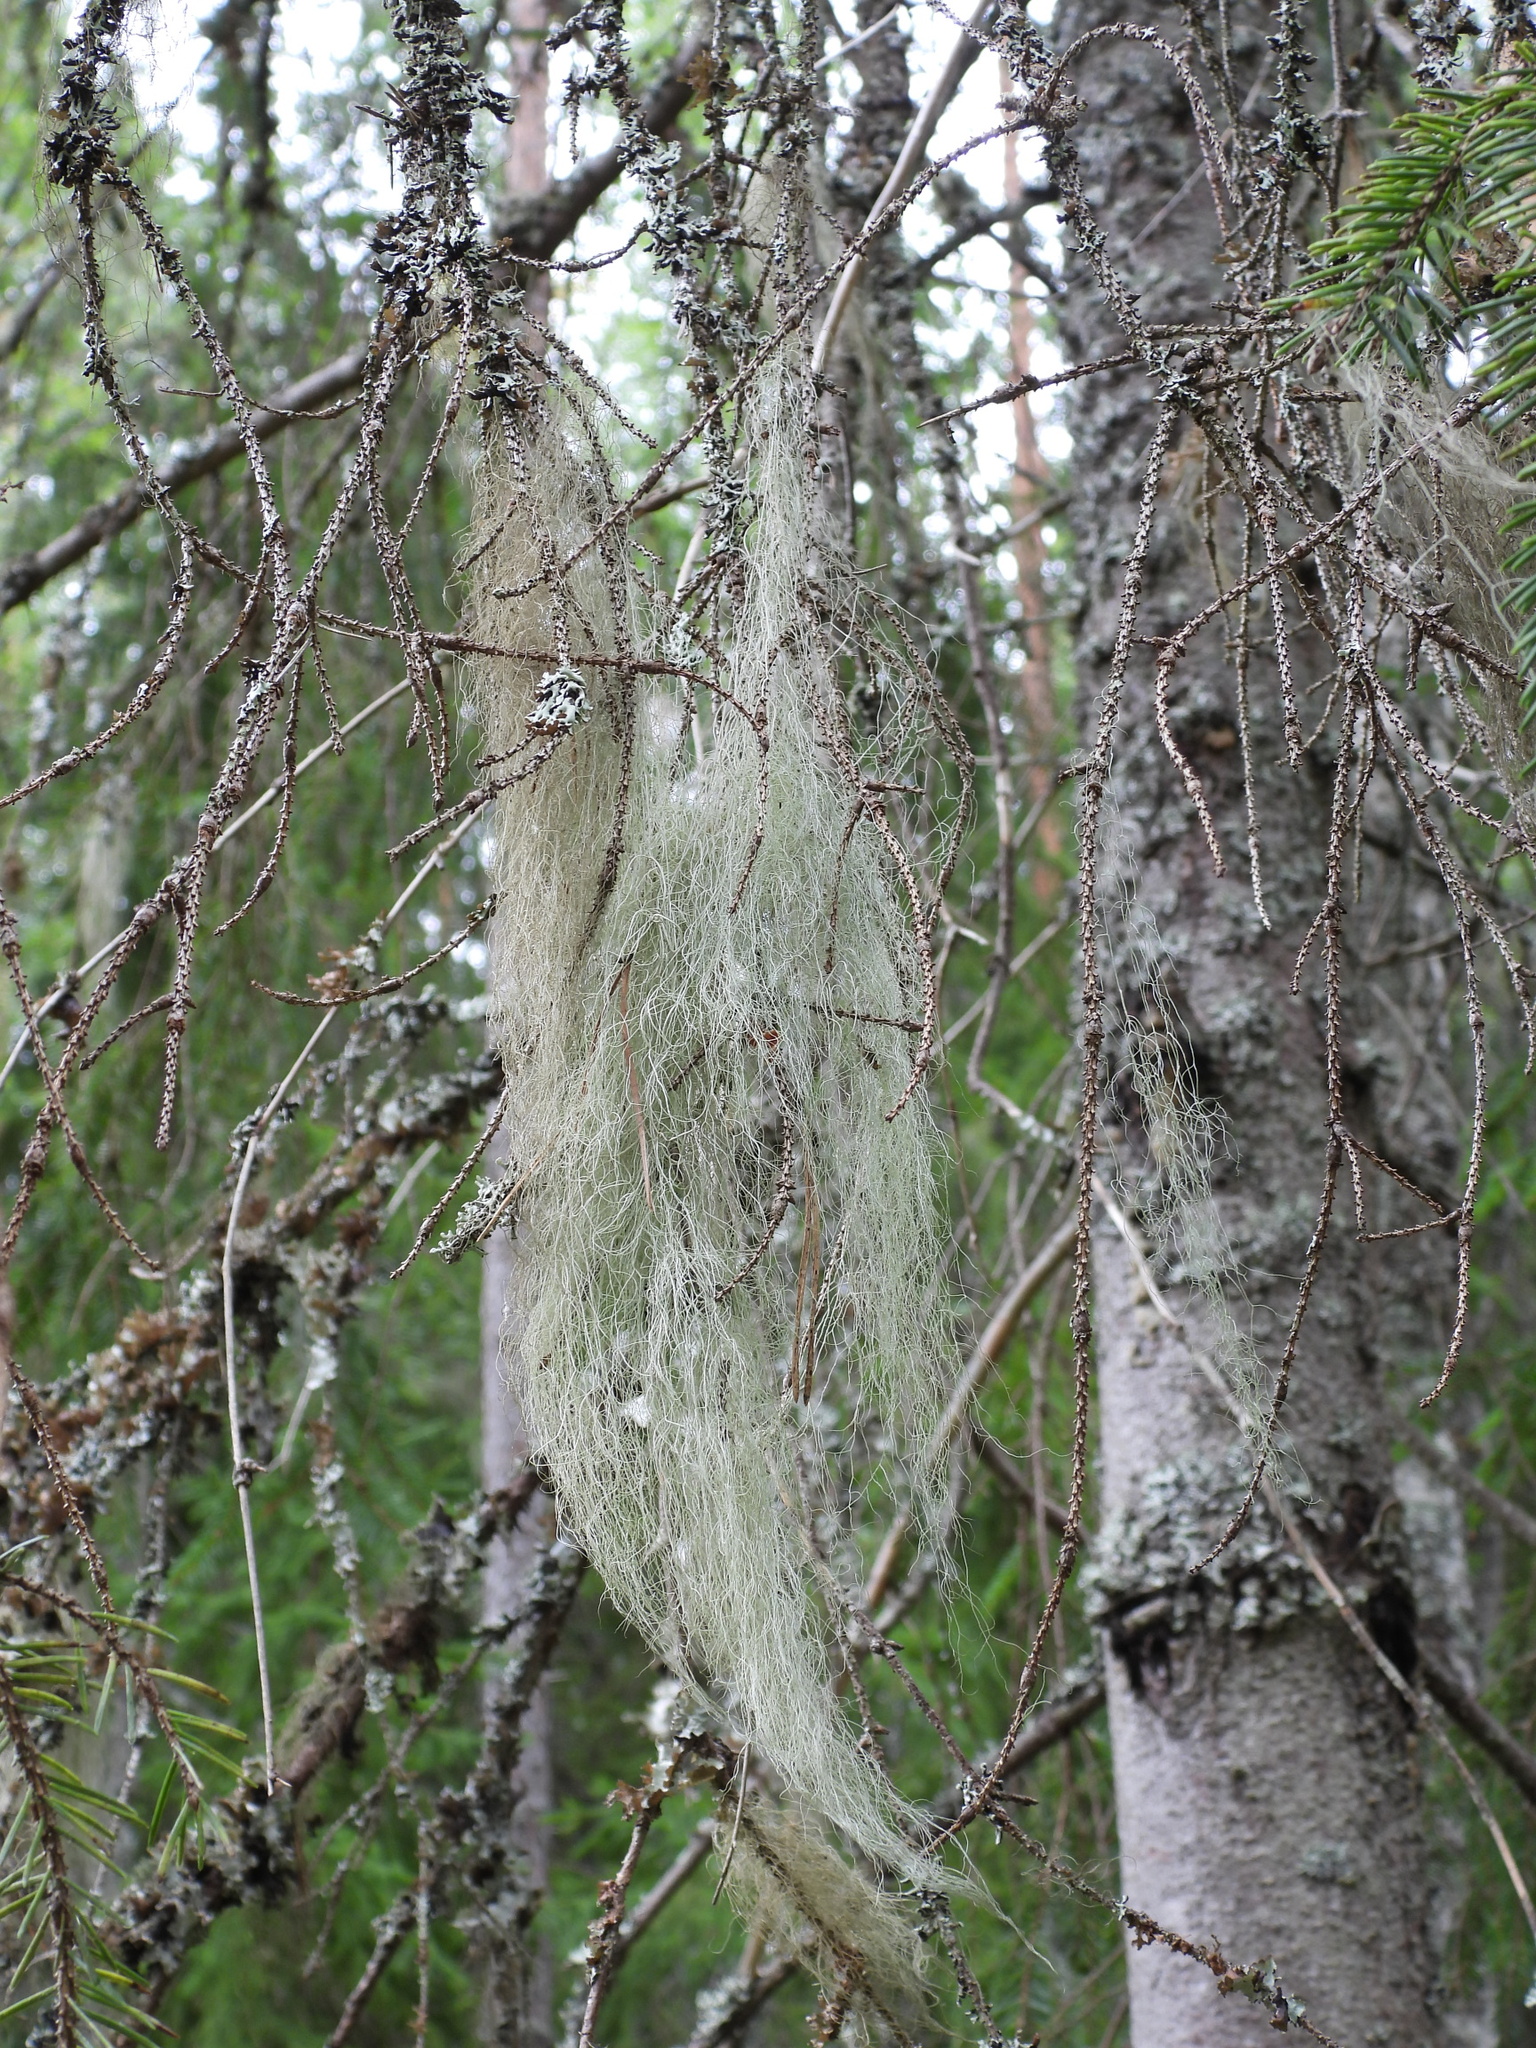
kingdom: Fungi
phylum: Ascomycota
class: Lecanoromycetes
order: Lecanorales
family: Parmeliaceae
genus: Bryoria
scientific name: Bryoria fuscescens
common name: Pale-footed horsehair lichen
